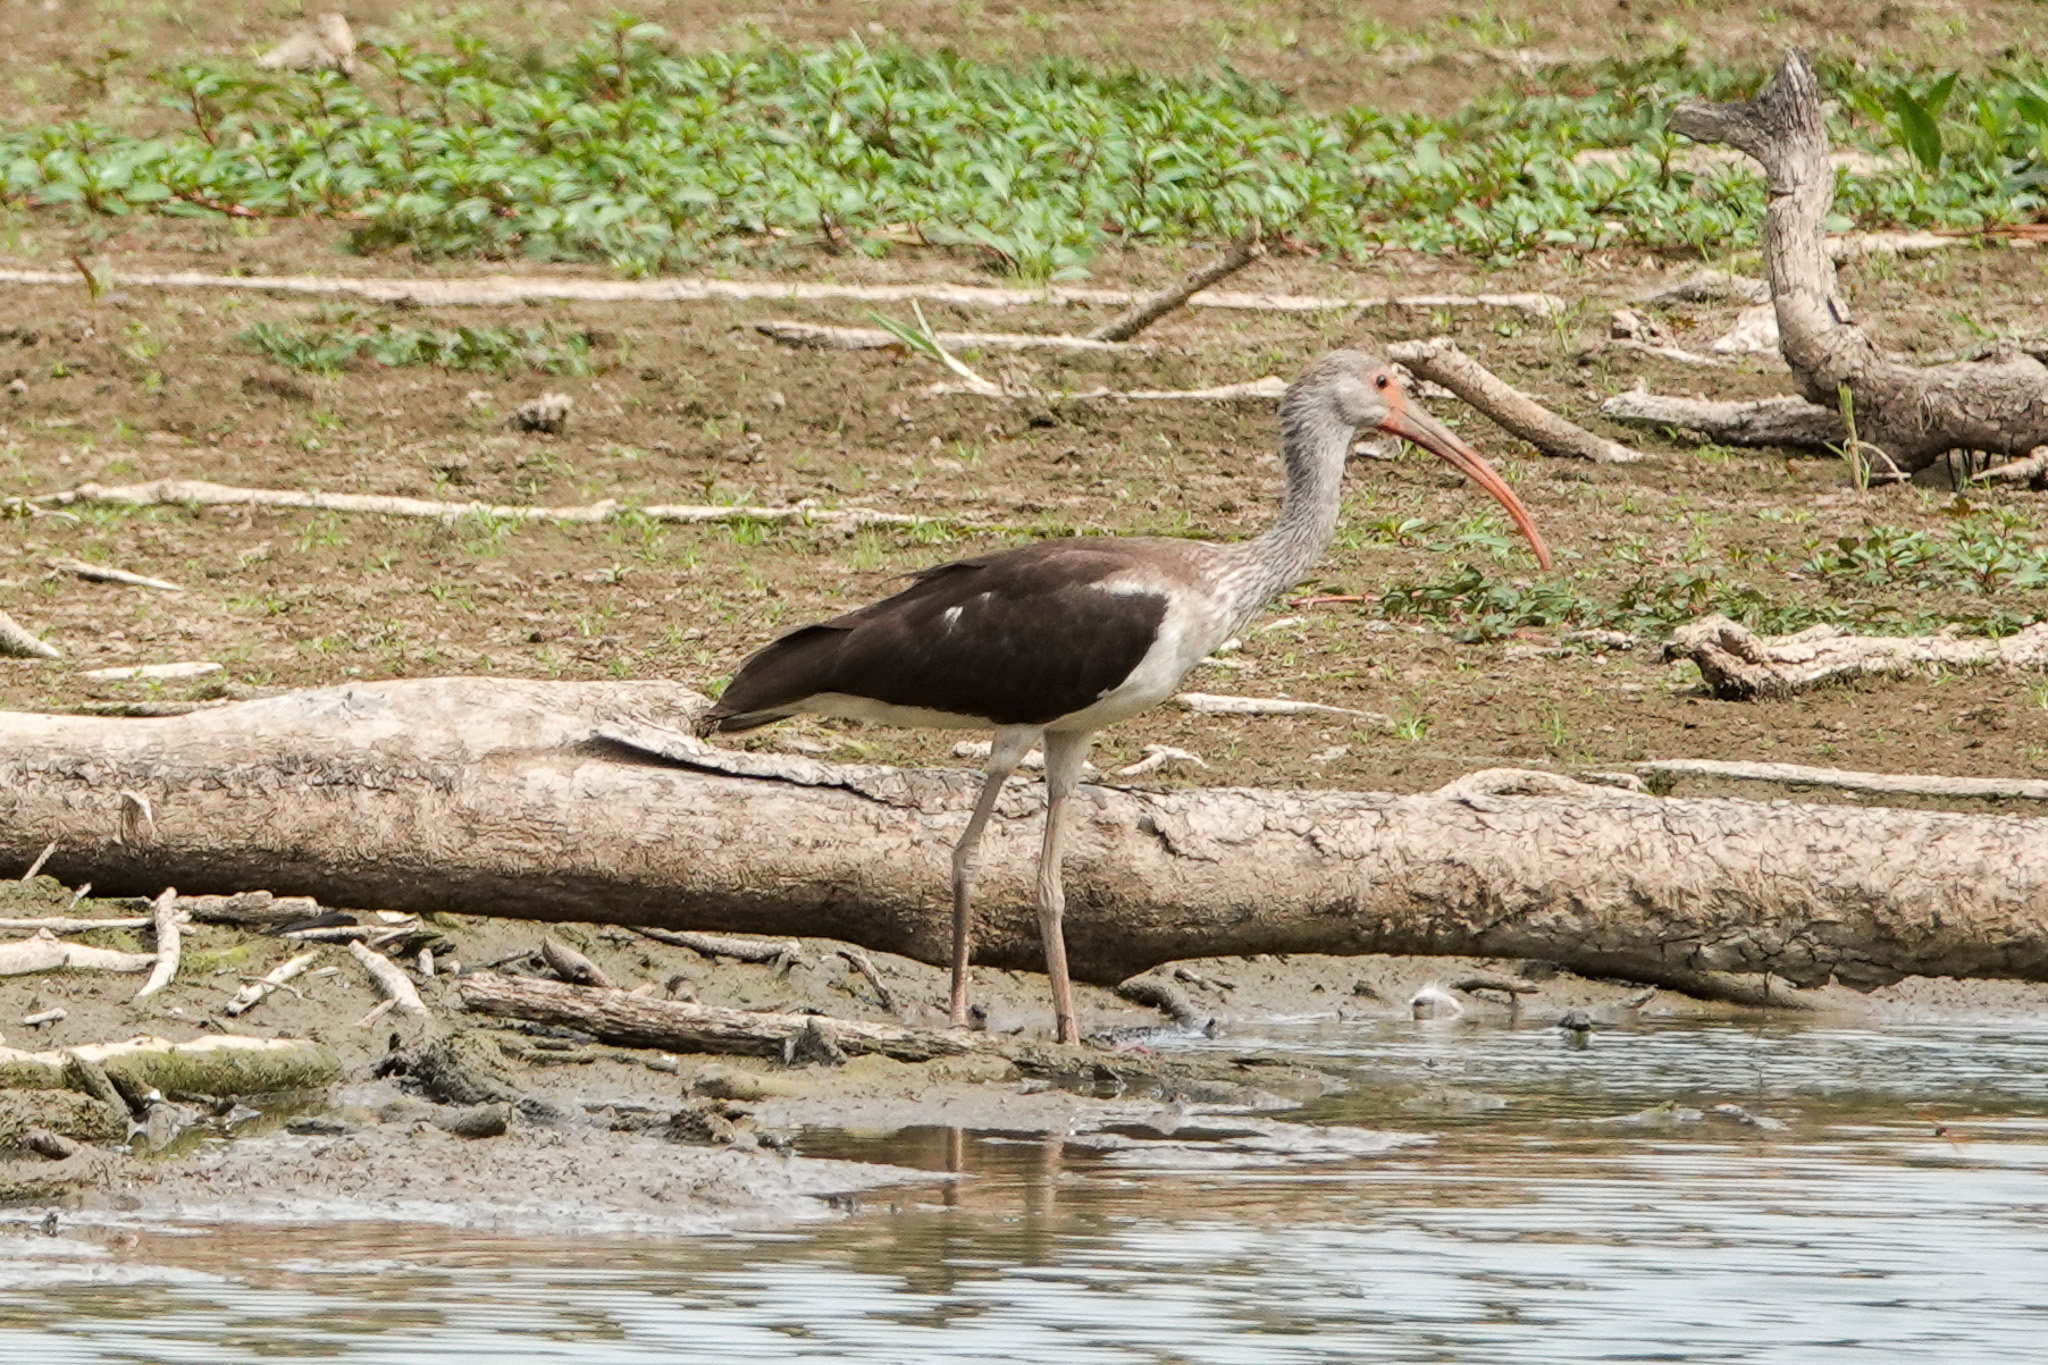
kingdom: Animalia
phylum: Chordata
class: Aves
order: Pelecaniformes
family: Threskiornithidae
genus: Eudocimus
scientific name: Eudocimus albus
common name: White ibis
